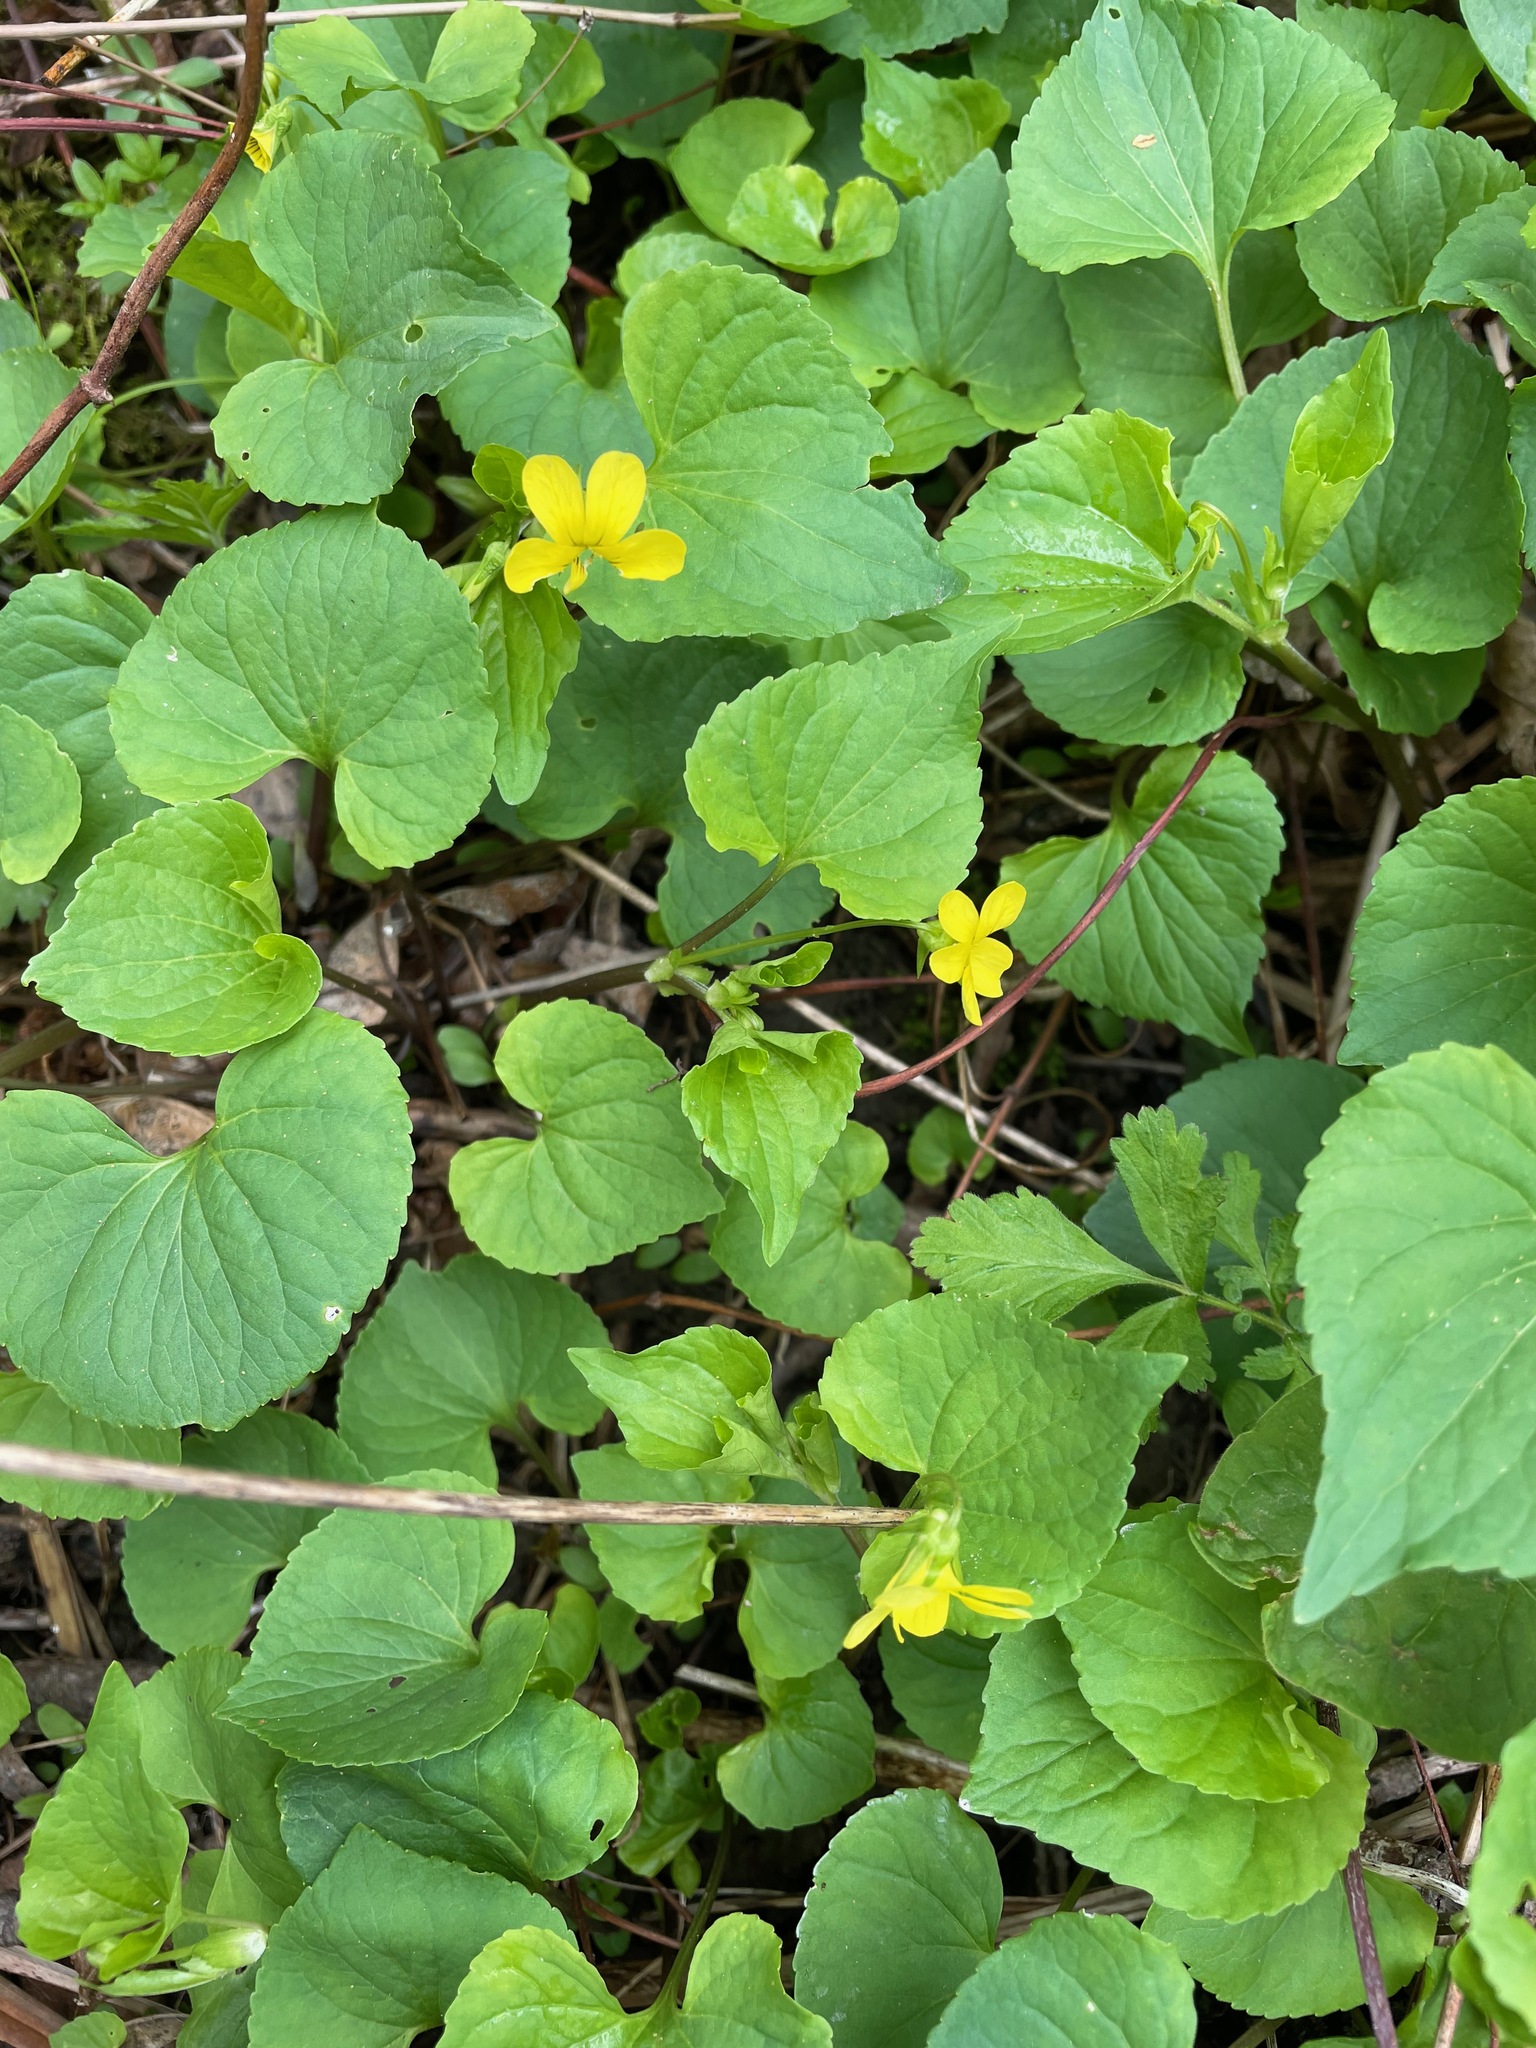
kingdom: Plantae
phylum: Tracheophyta
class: Magnoliopsida
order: Malpighiales
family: Violaceae
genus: Viola
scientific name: Viola eriocarpa
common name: Smooth yellow violet
